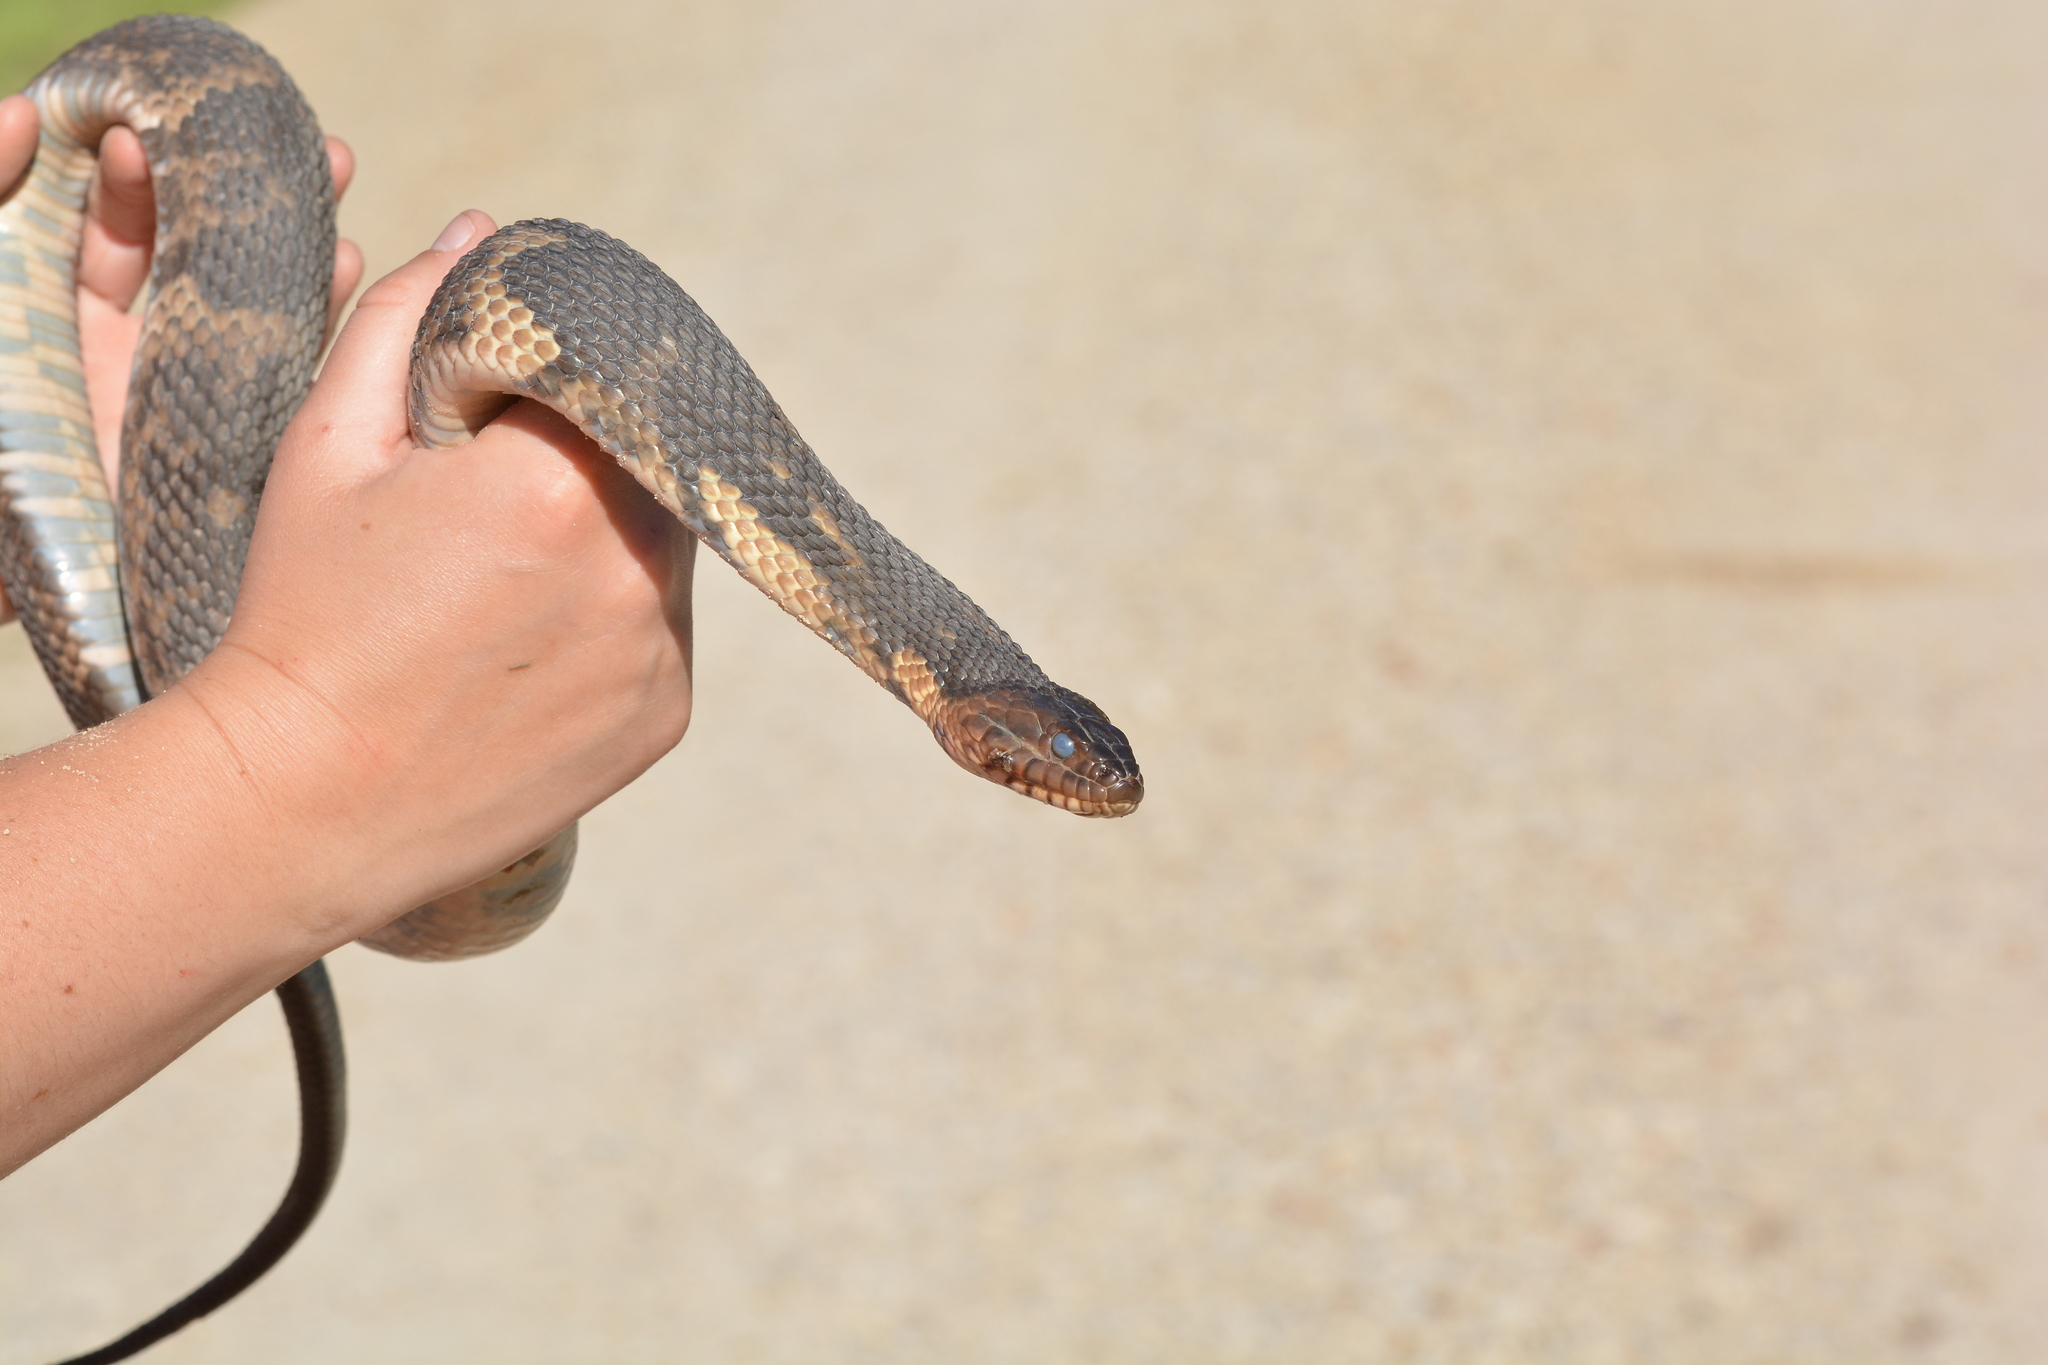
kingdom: Animalia
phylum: Chordata
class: Squamata
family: Colubridae
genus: Nerodia
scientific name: Nerodia fasciata
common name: Southern water snake
